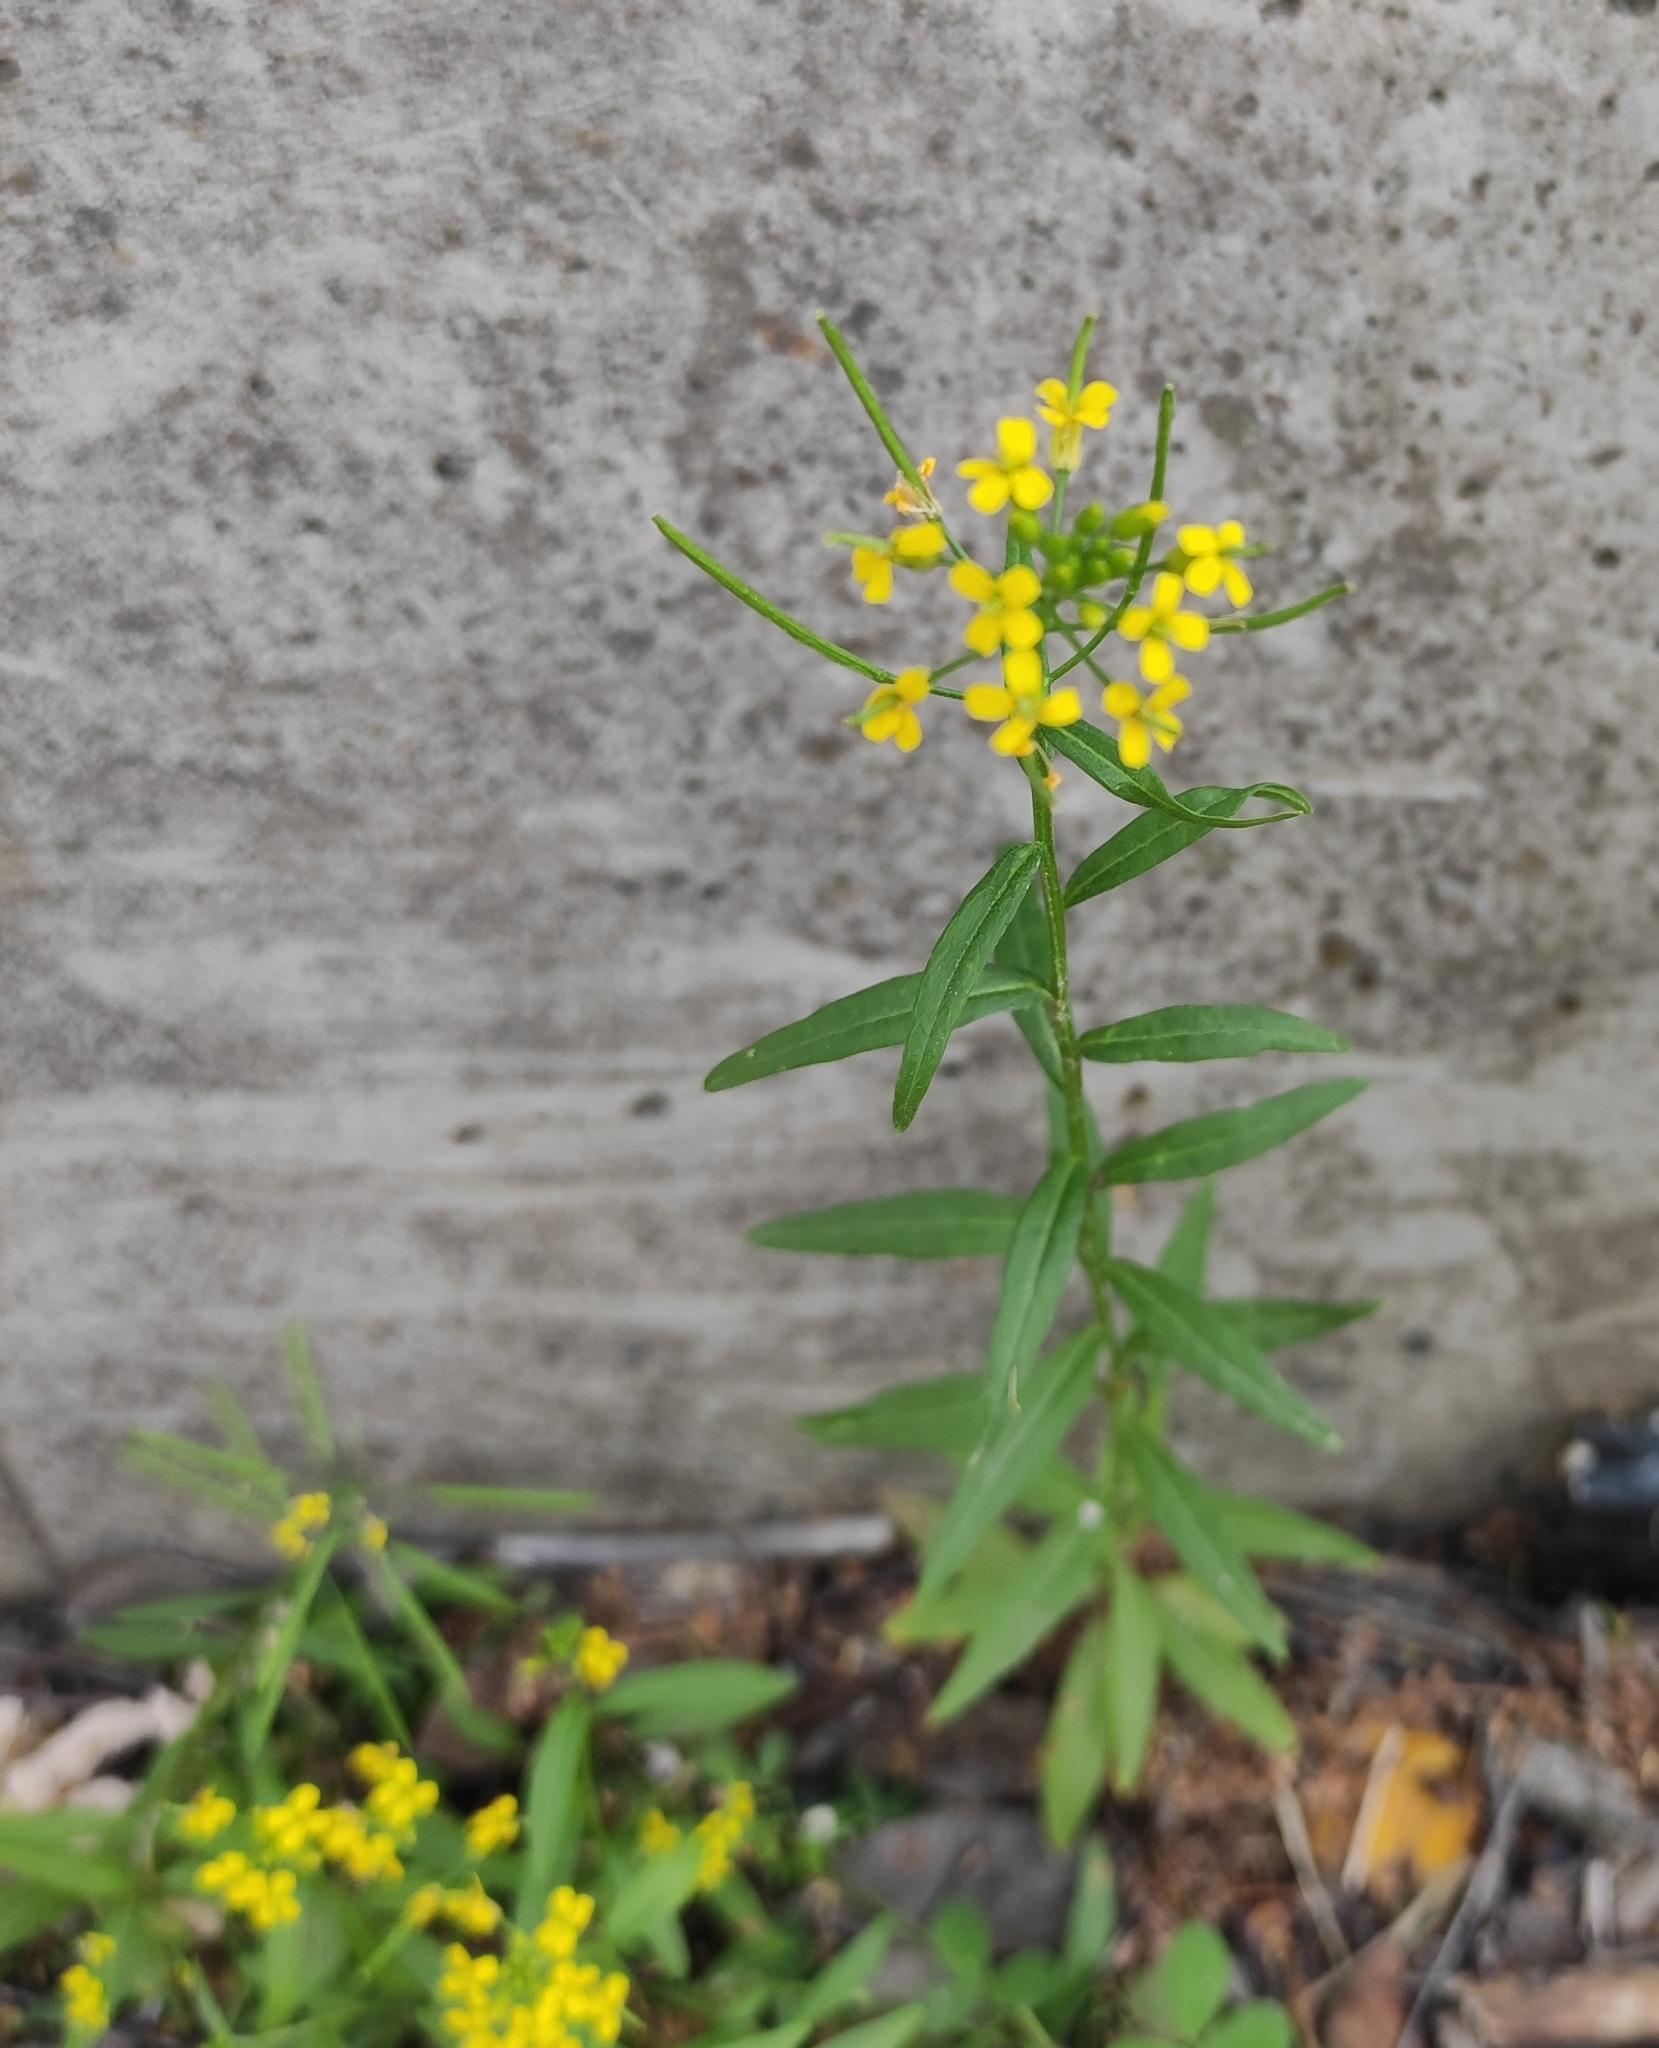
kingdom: Plantae
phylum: Tracheophyta
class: Magnoliopsida
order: Brassicales
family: Brassicaceae
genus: Erysimum
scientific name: Erysimum cheiranthoides
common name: Treacle mustard
